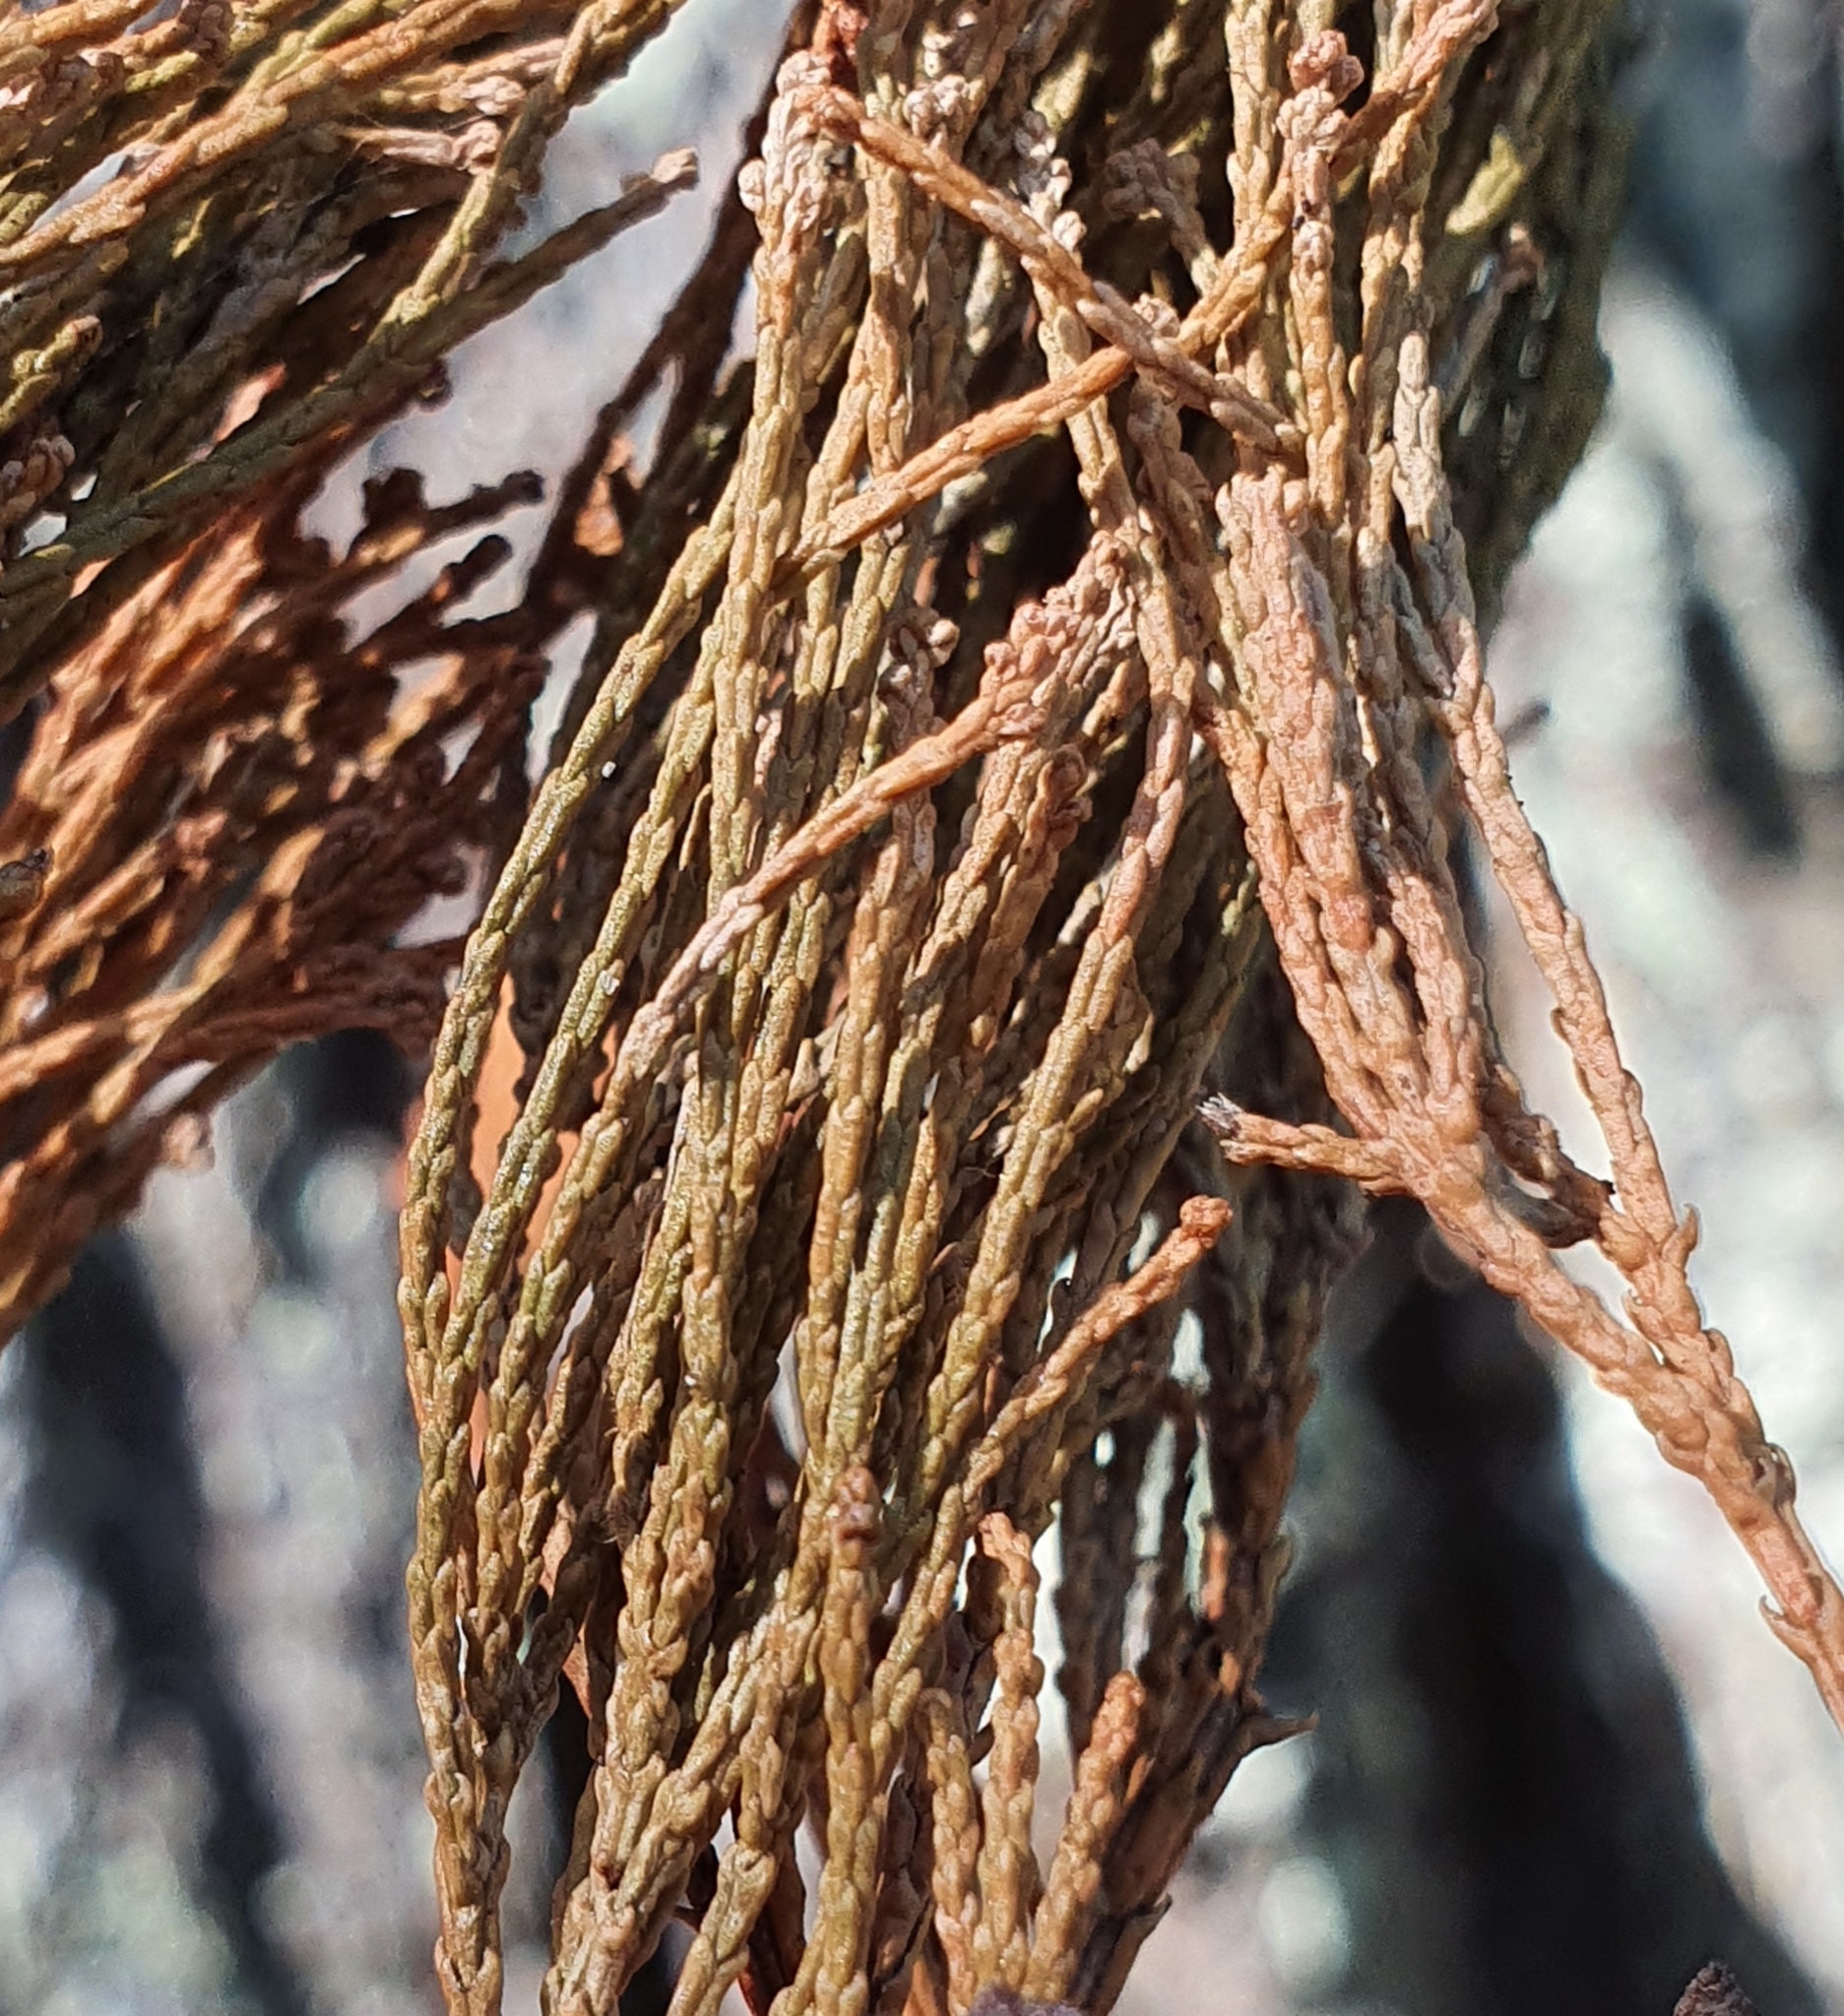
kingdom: Plantae
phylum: Tracheophyta
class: Pinopsida
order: Pinales
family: Cupressaceae
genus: Callitris
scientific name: Callitris columellaris
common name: White cypress-pine
